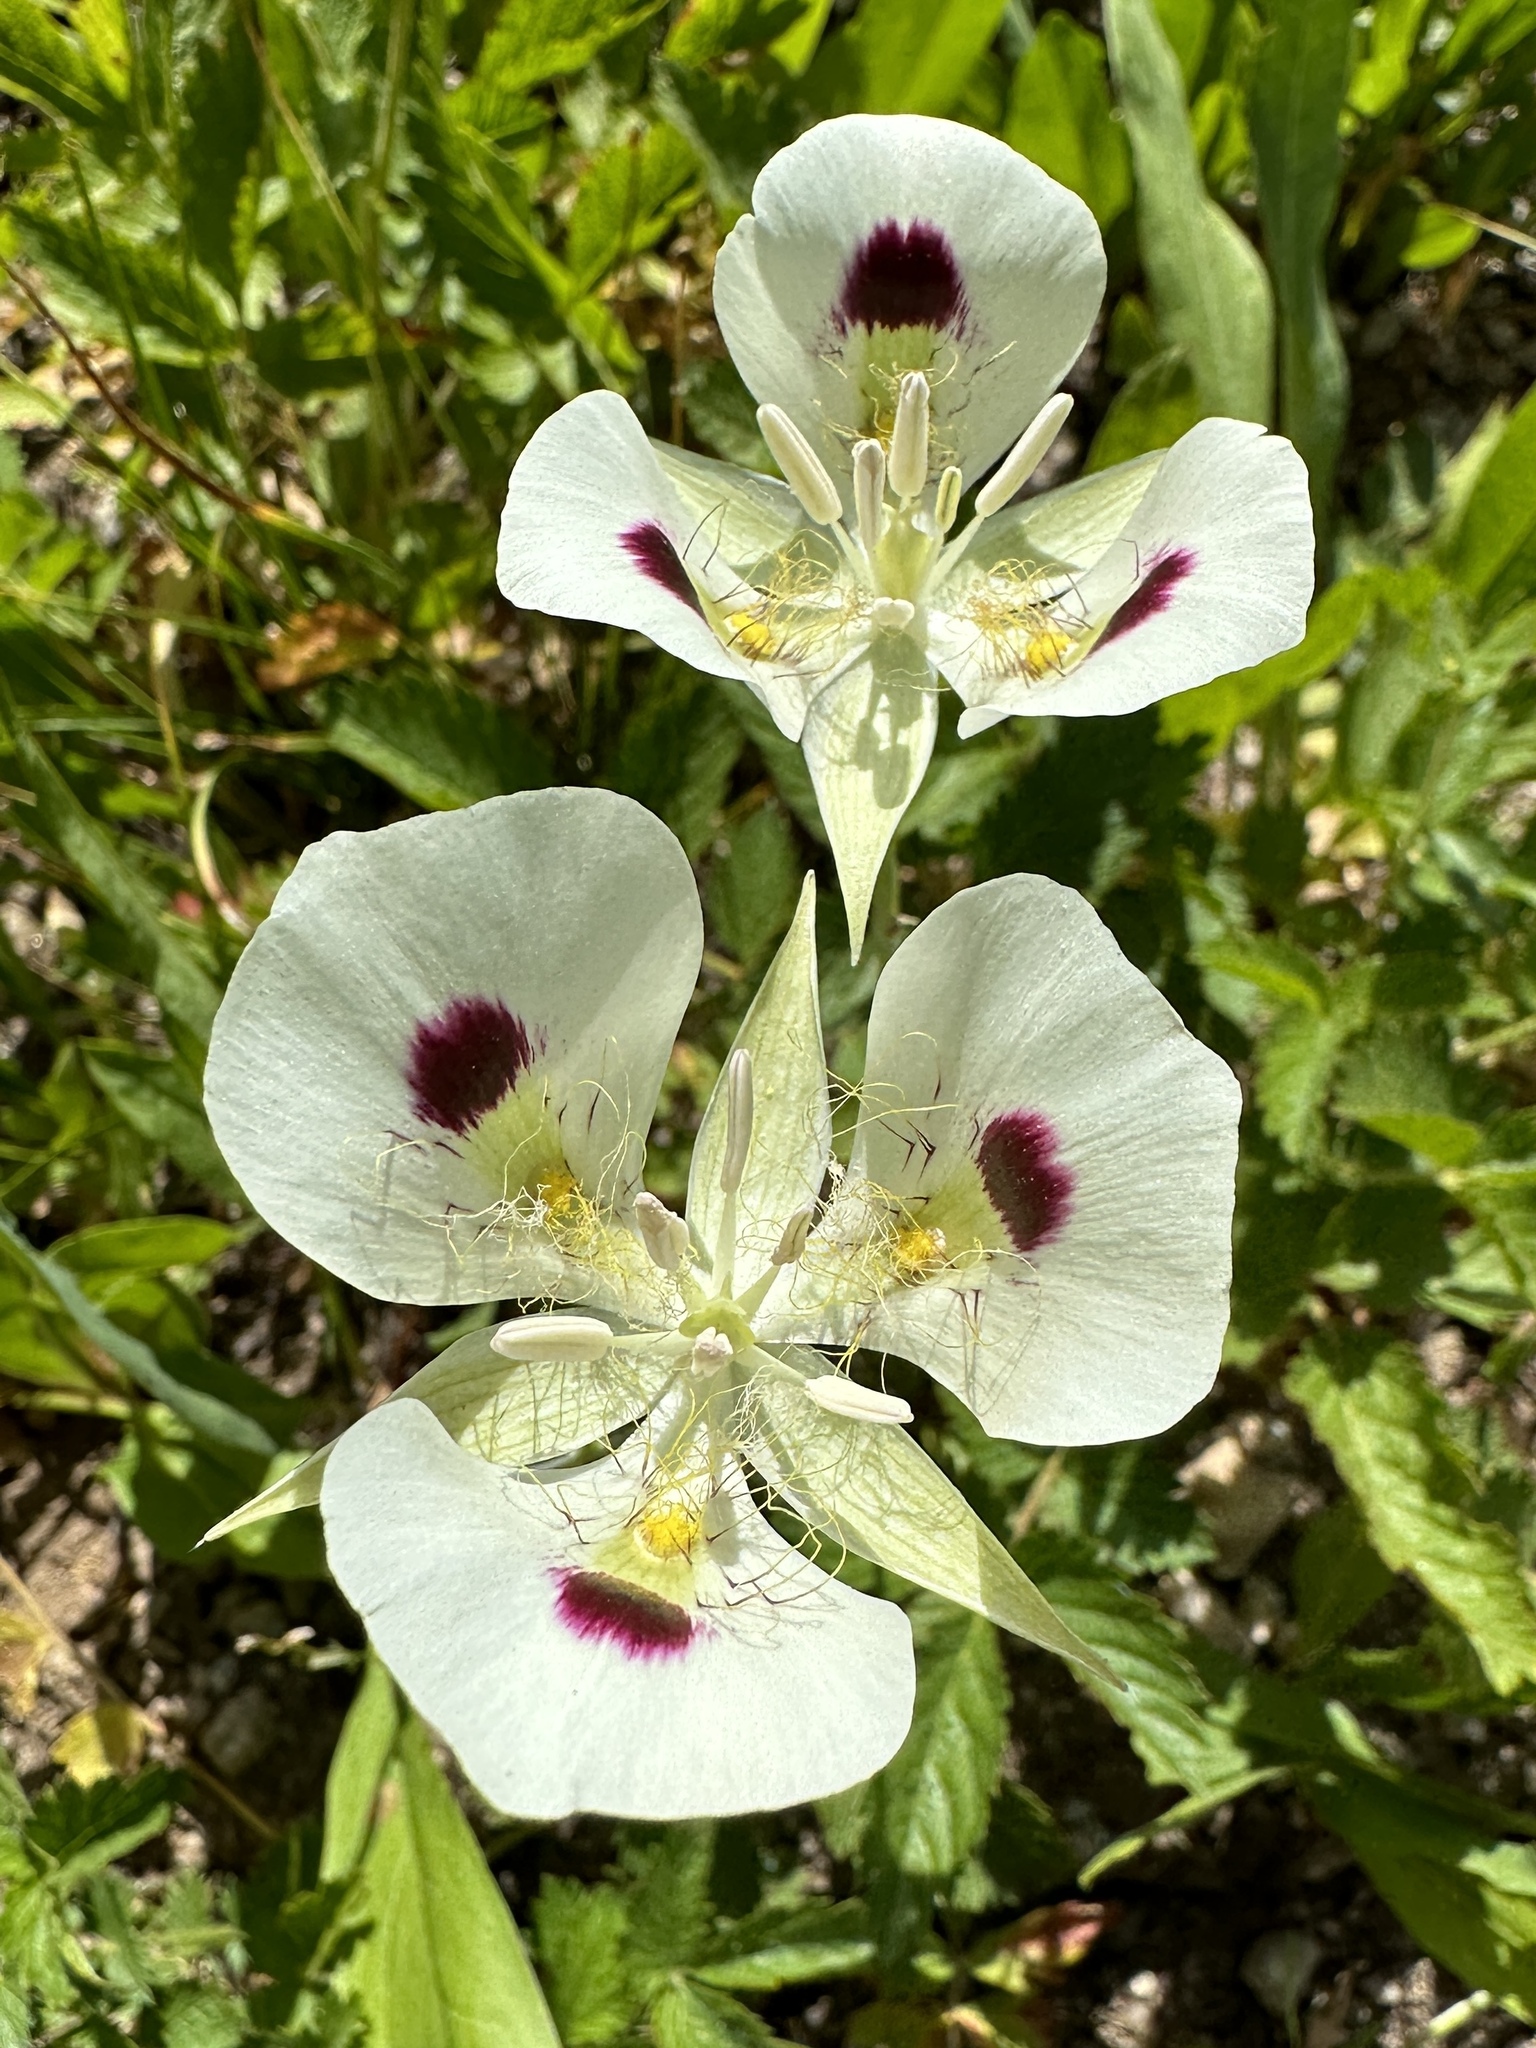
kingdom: Plantae
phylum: Tracheophyta
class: Liliopsida
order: Liliales
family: Liliaceae
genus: Calochortus
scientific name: Calochortus eurycarpus
